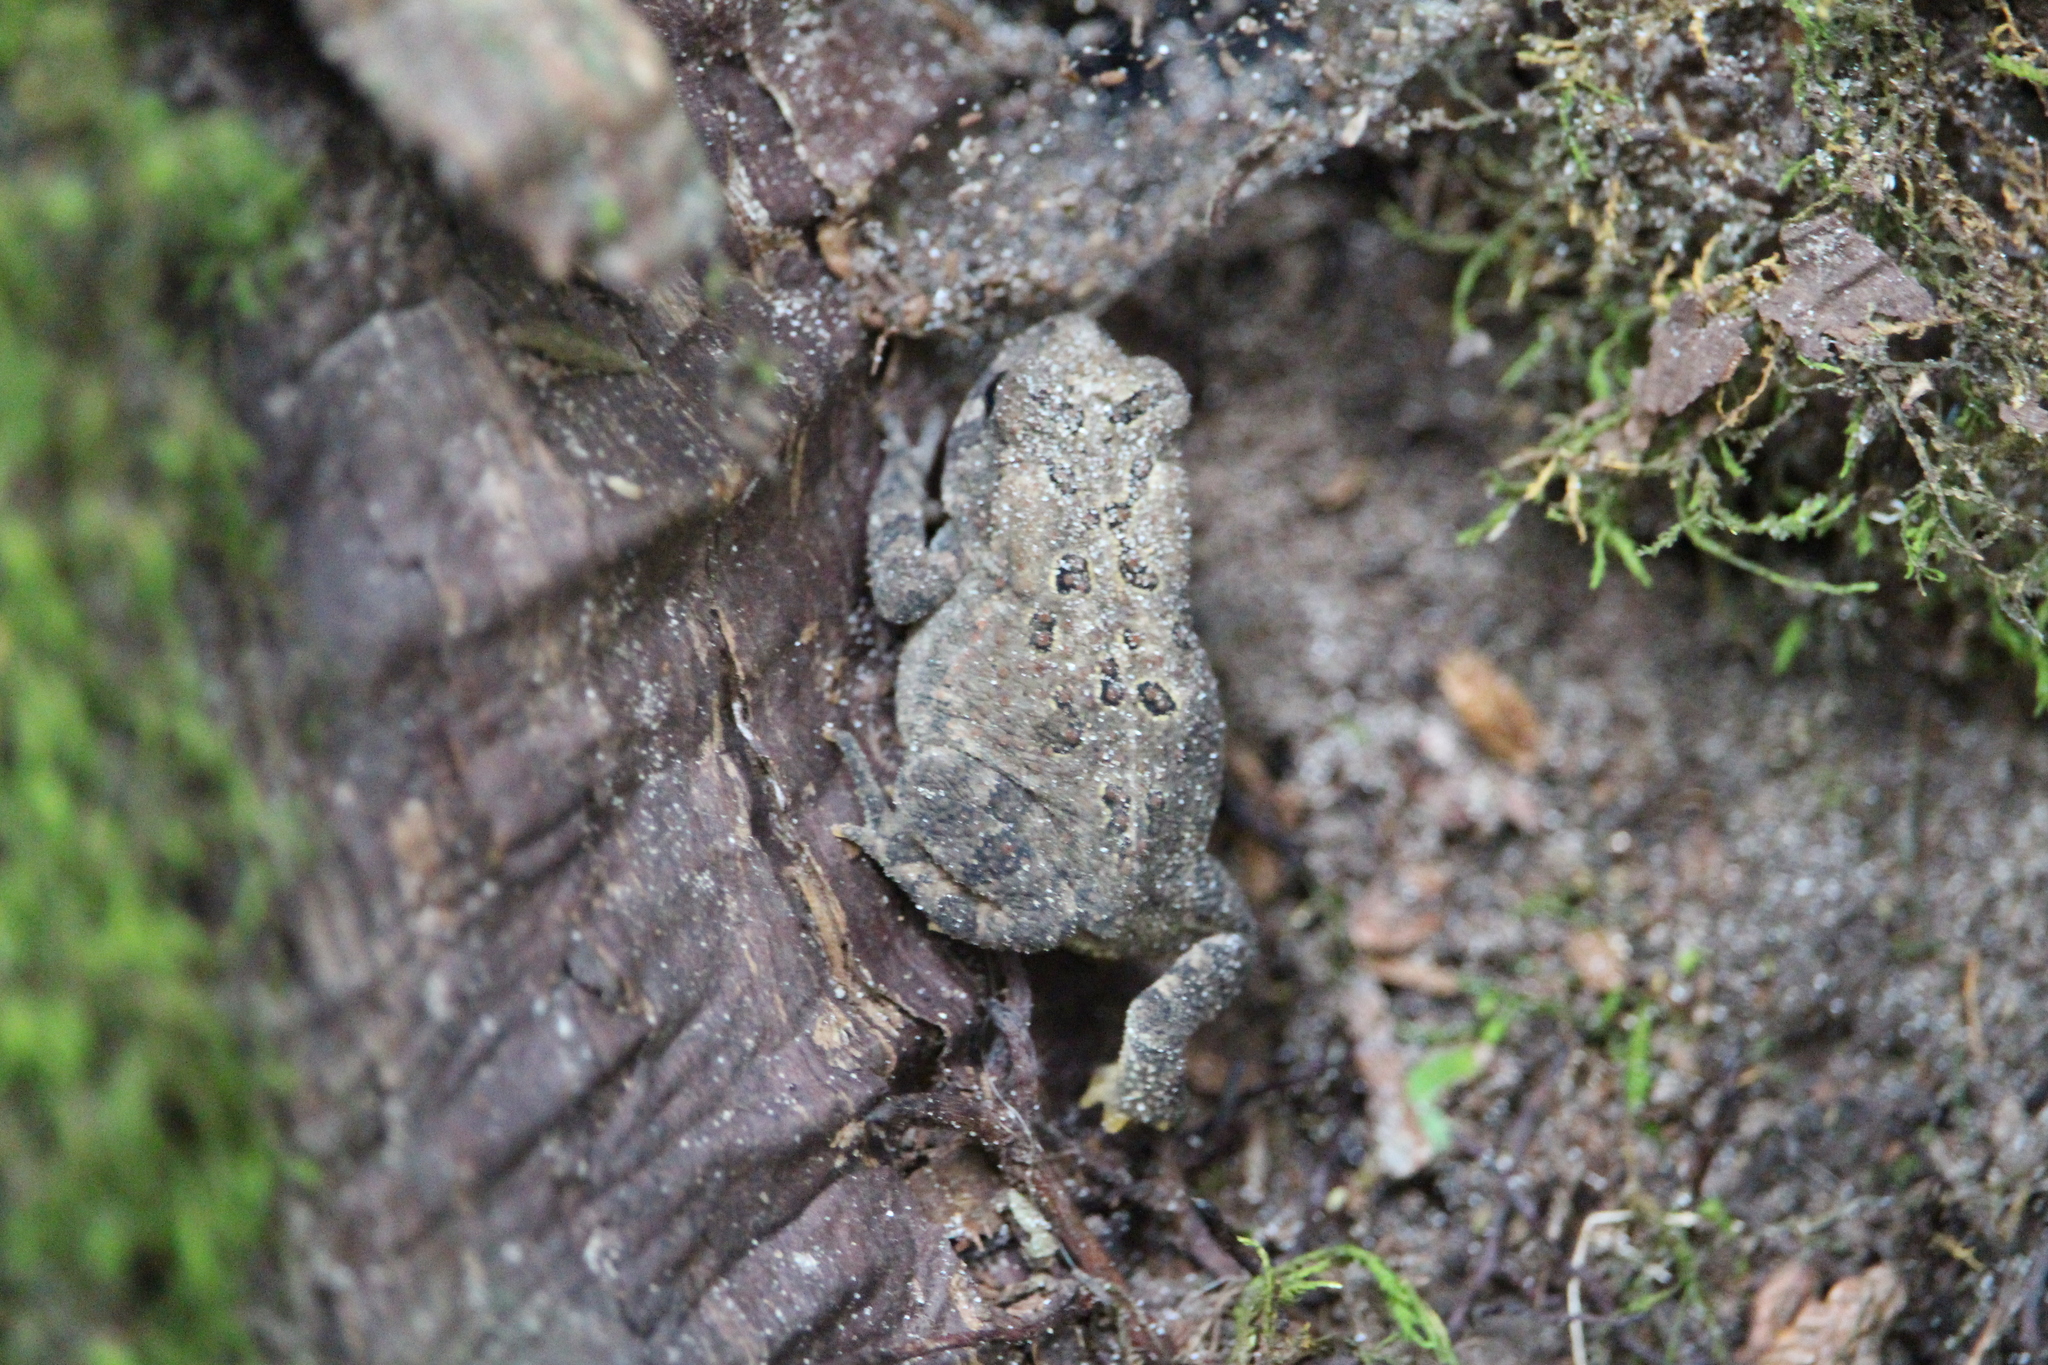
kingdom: Animalia
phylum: Chordata
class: Amphibia
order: Anura
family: Bufonidae
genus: Anaxyrus
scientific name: Anaxyrus americanus
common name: American toad
